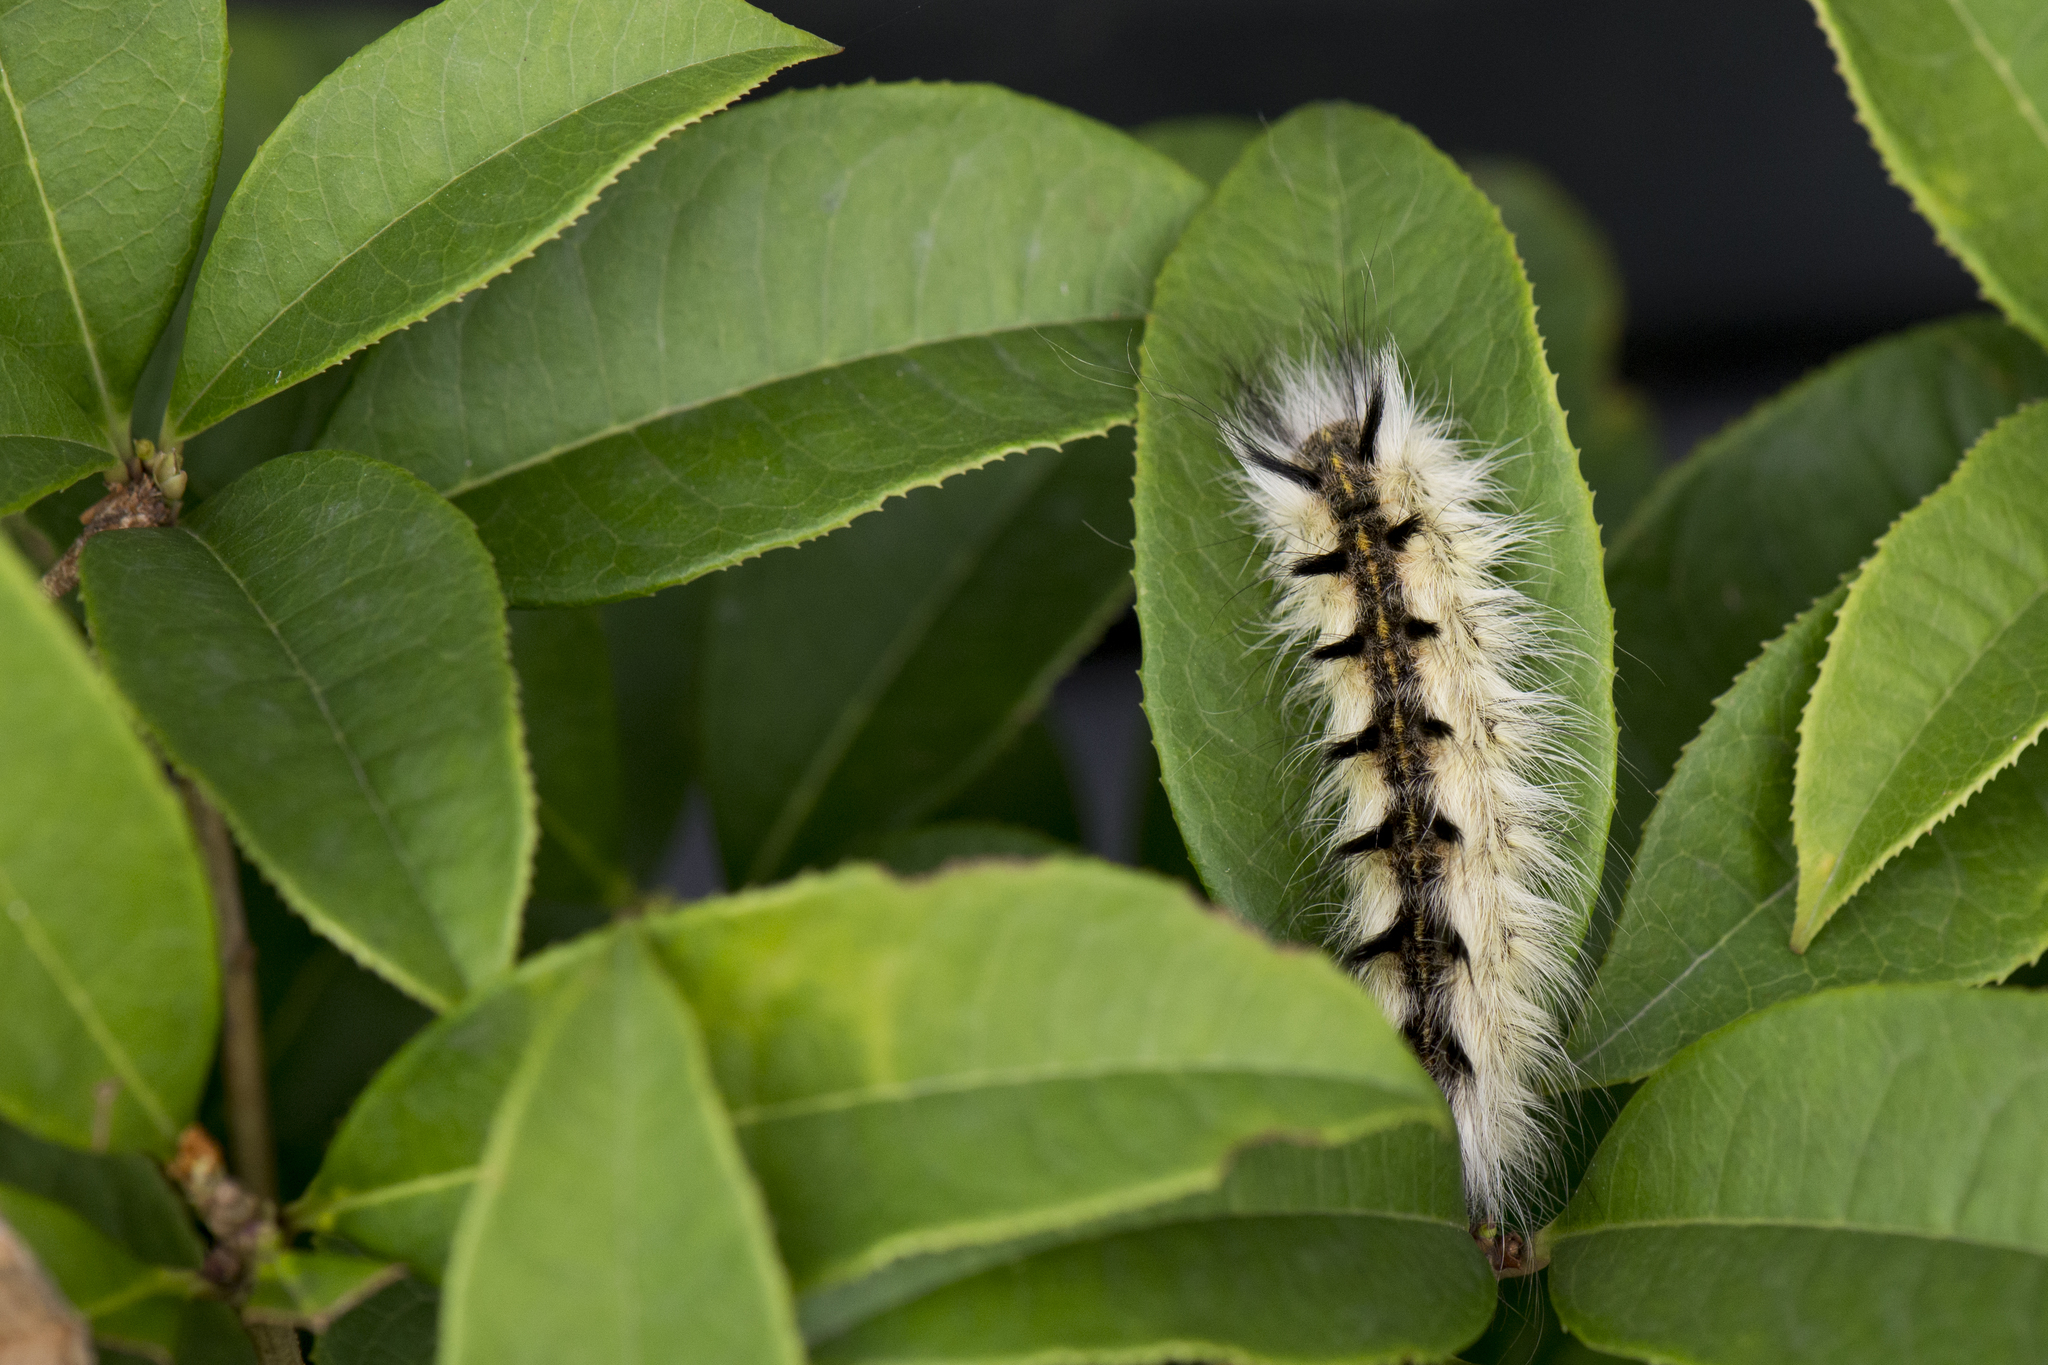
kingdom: Animalia
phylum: Arthropoda
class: Insecta
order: Lepidoptera
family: Eupterotidae
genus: Ganisa
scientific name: Ganisa formosicola
